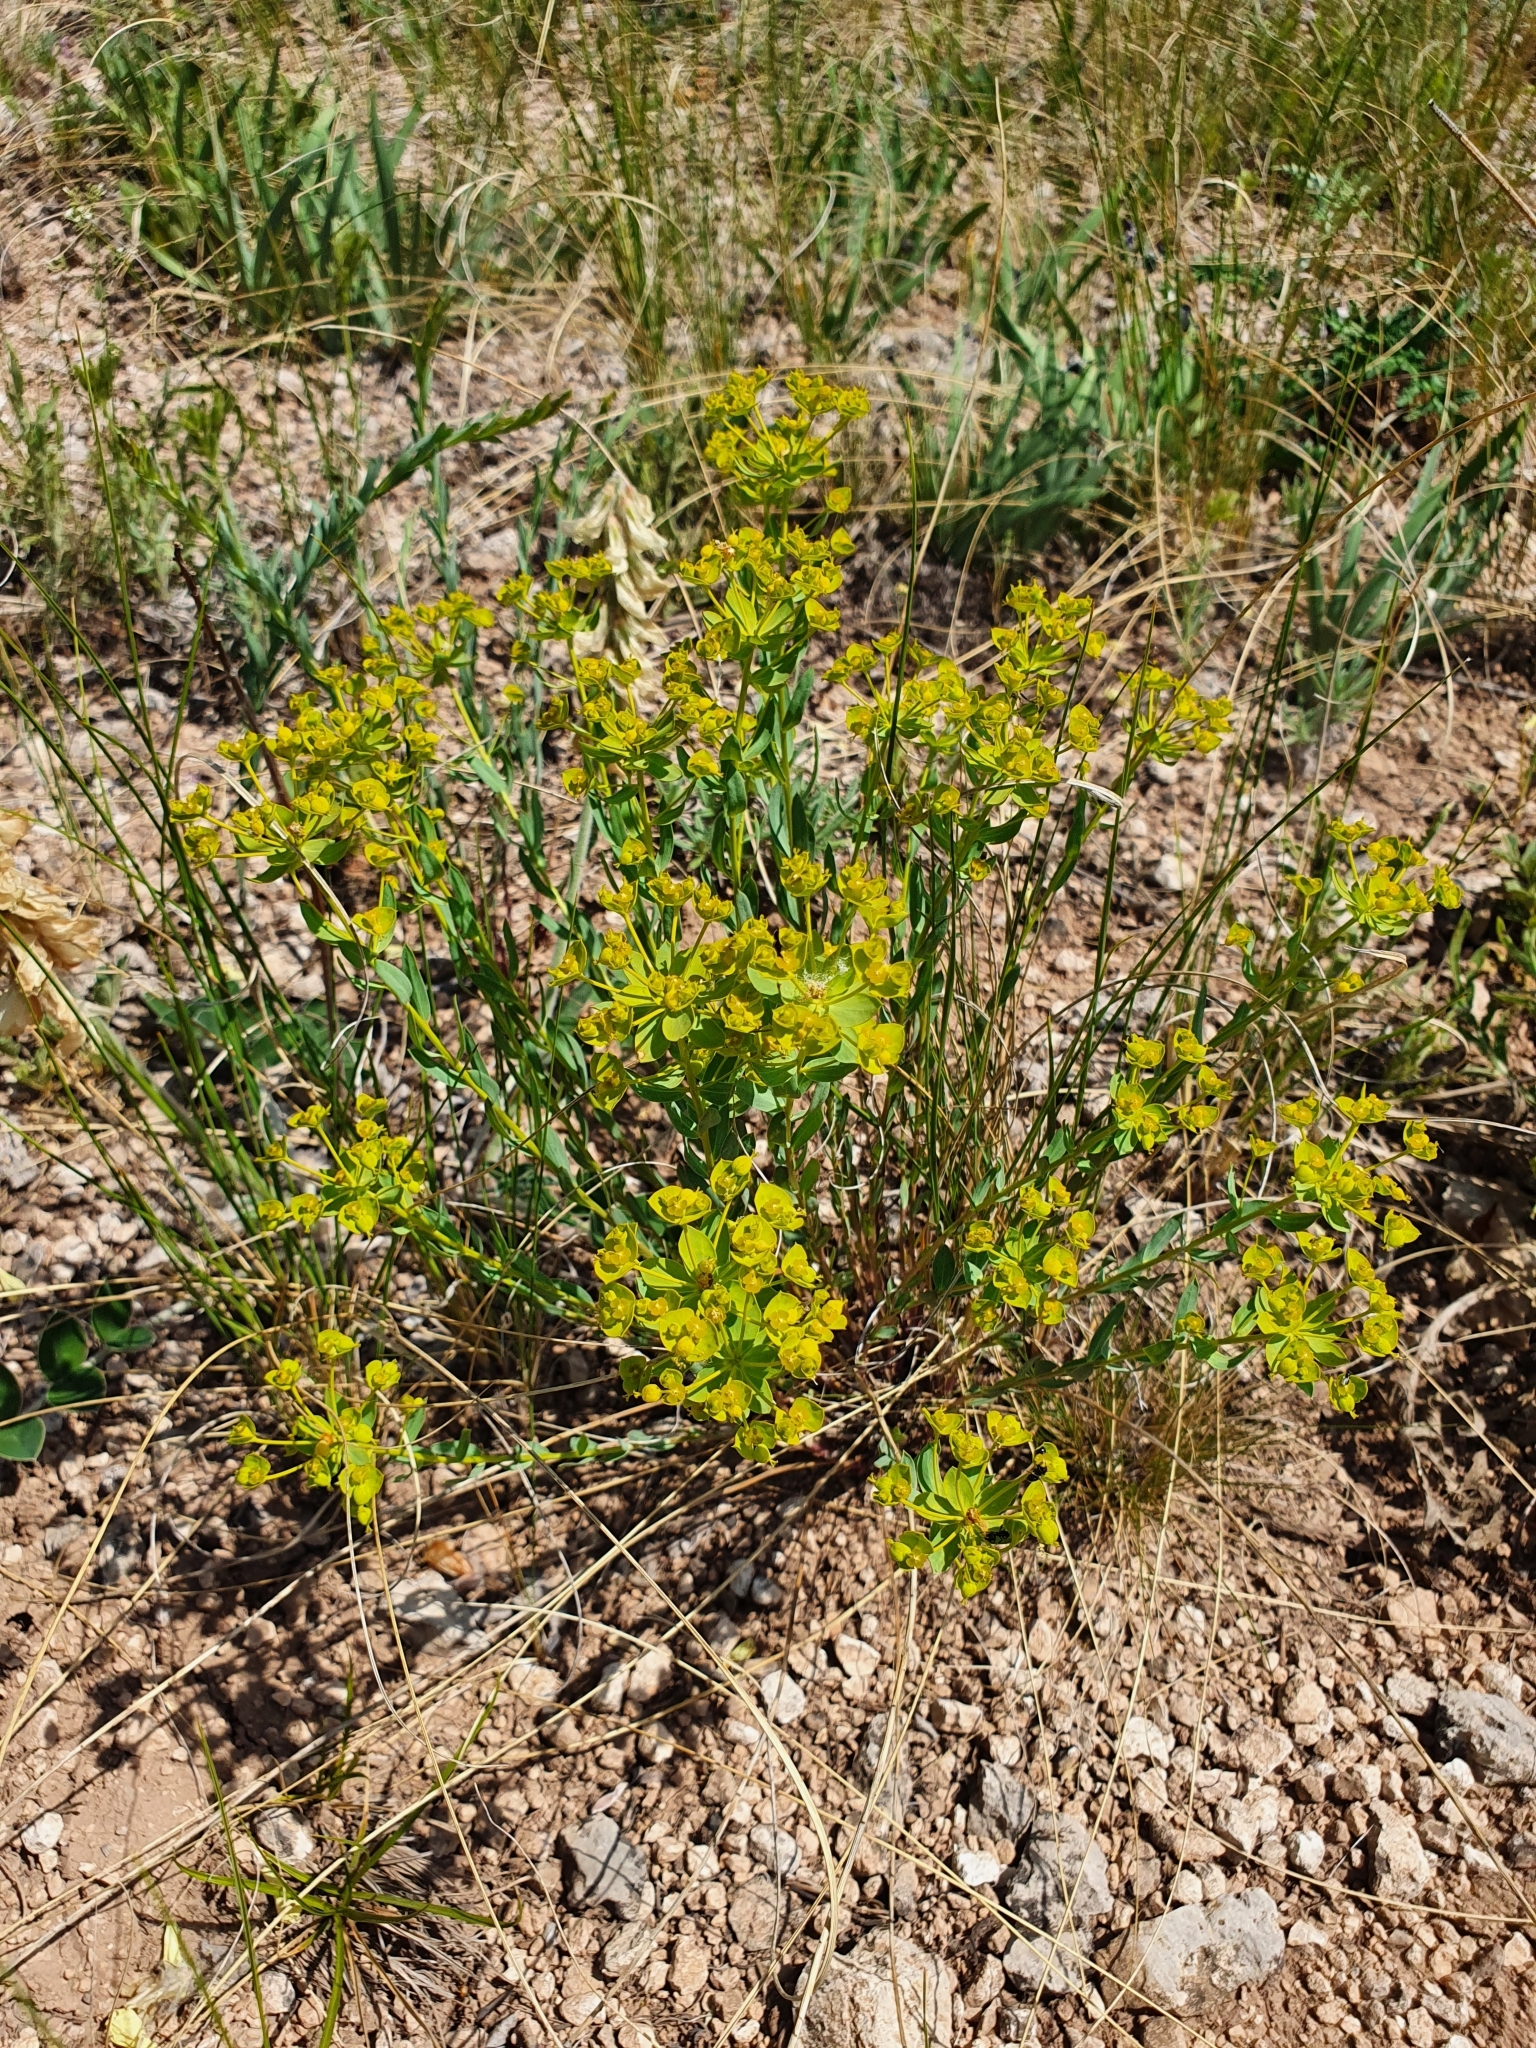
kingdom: Plantae
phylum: Tracheophyta
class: Magnoliopsida
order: Malpighiales
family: Euphorbiaceae
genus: Euphorbia
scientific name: Euphorbia seguieriana
